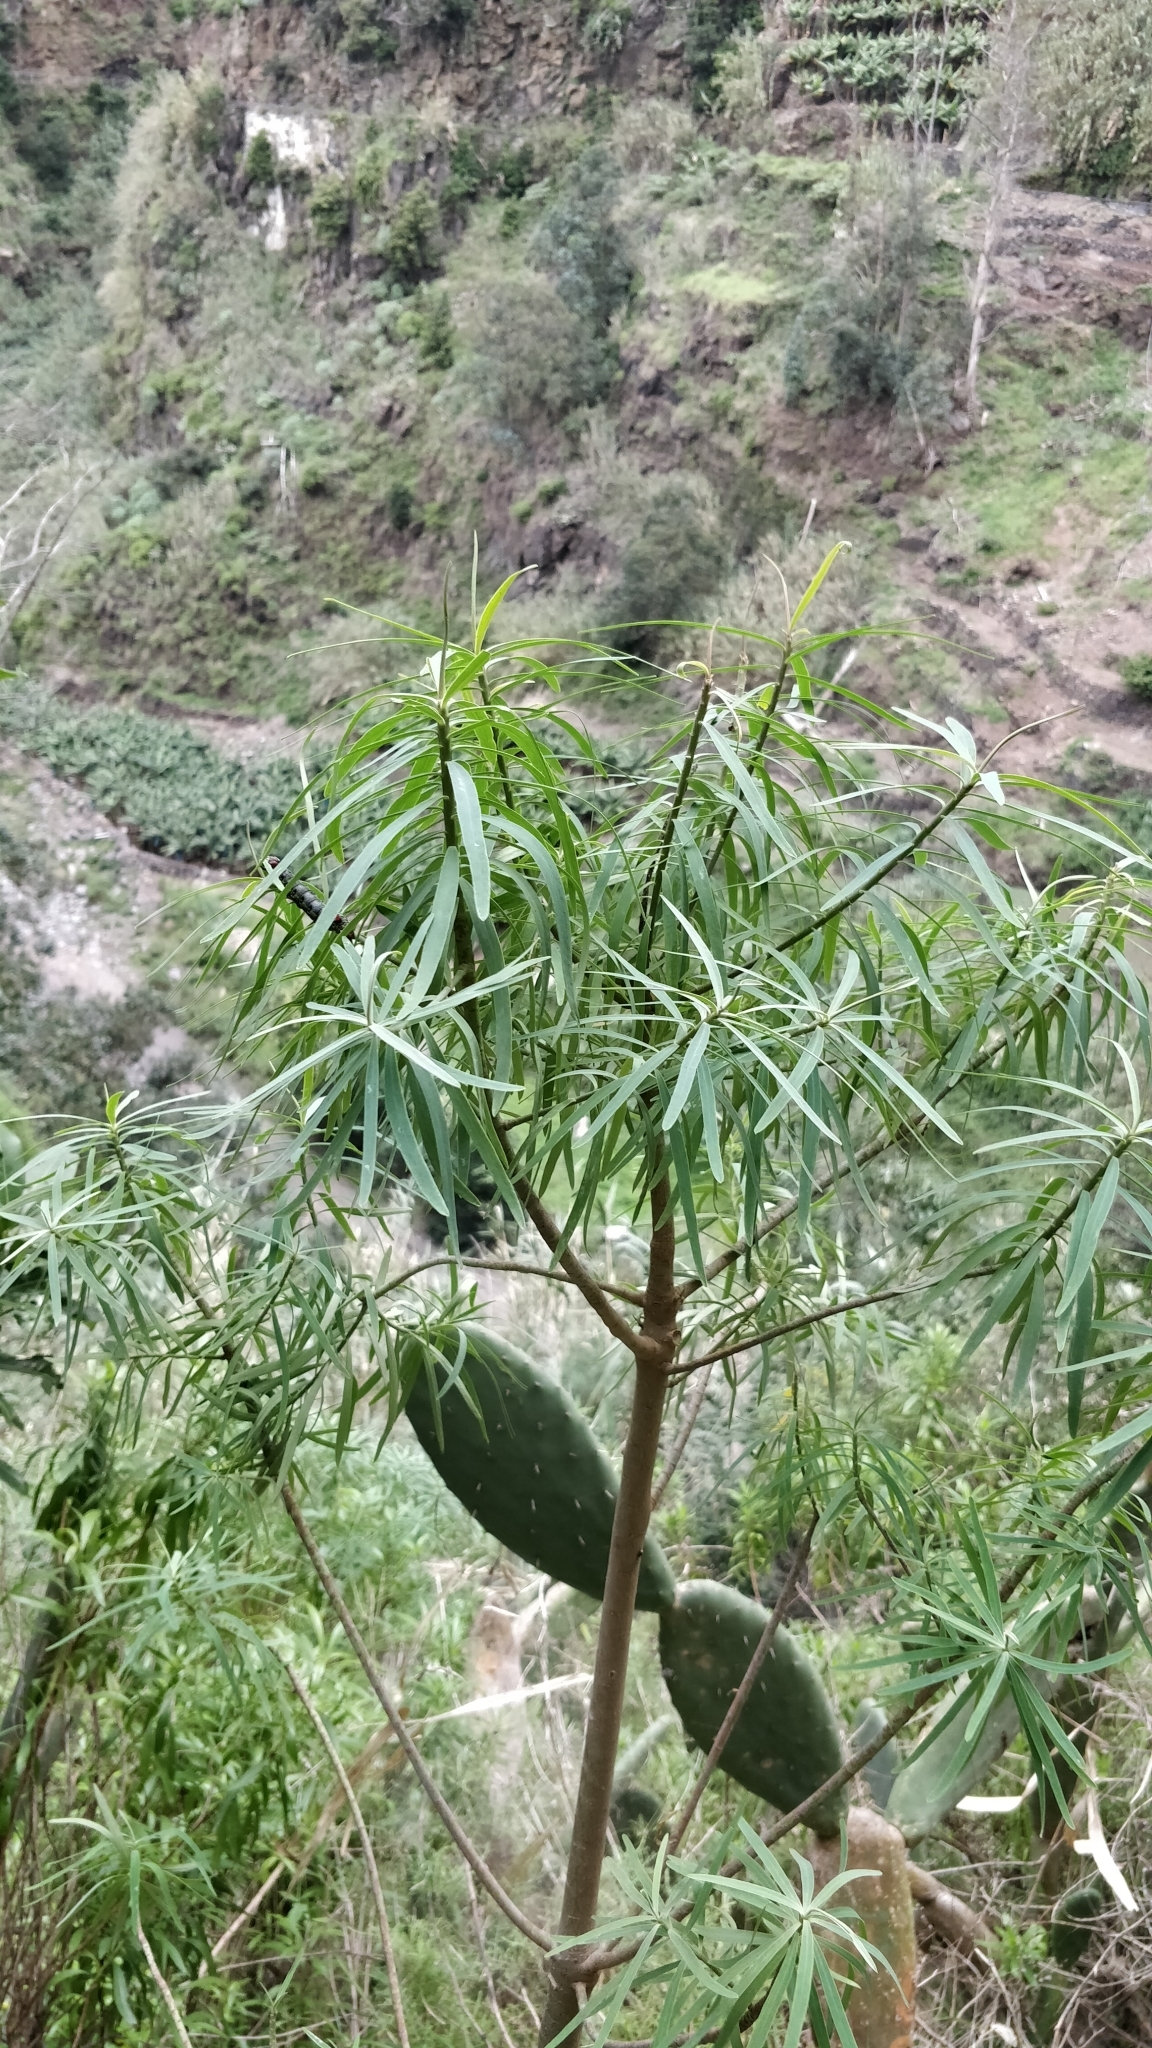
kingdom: Plantae
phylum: Tracheophyta
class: Magnoliopsida
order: Malpighiales
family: Euphorbiaceae
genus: Euphorbia
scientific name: Euphorbia piscatoria
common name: Fish-stunning spurge
